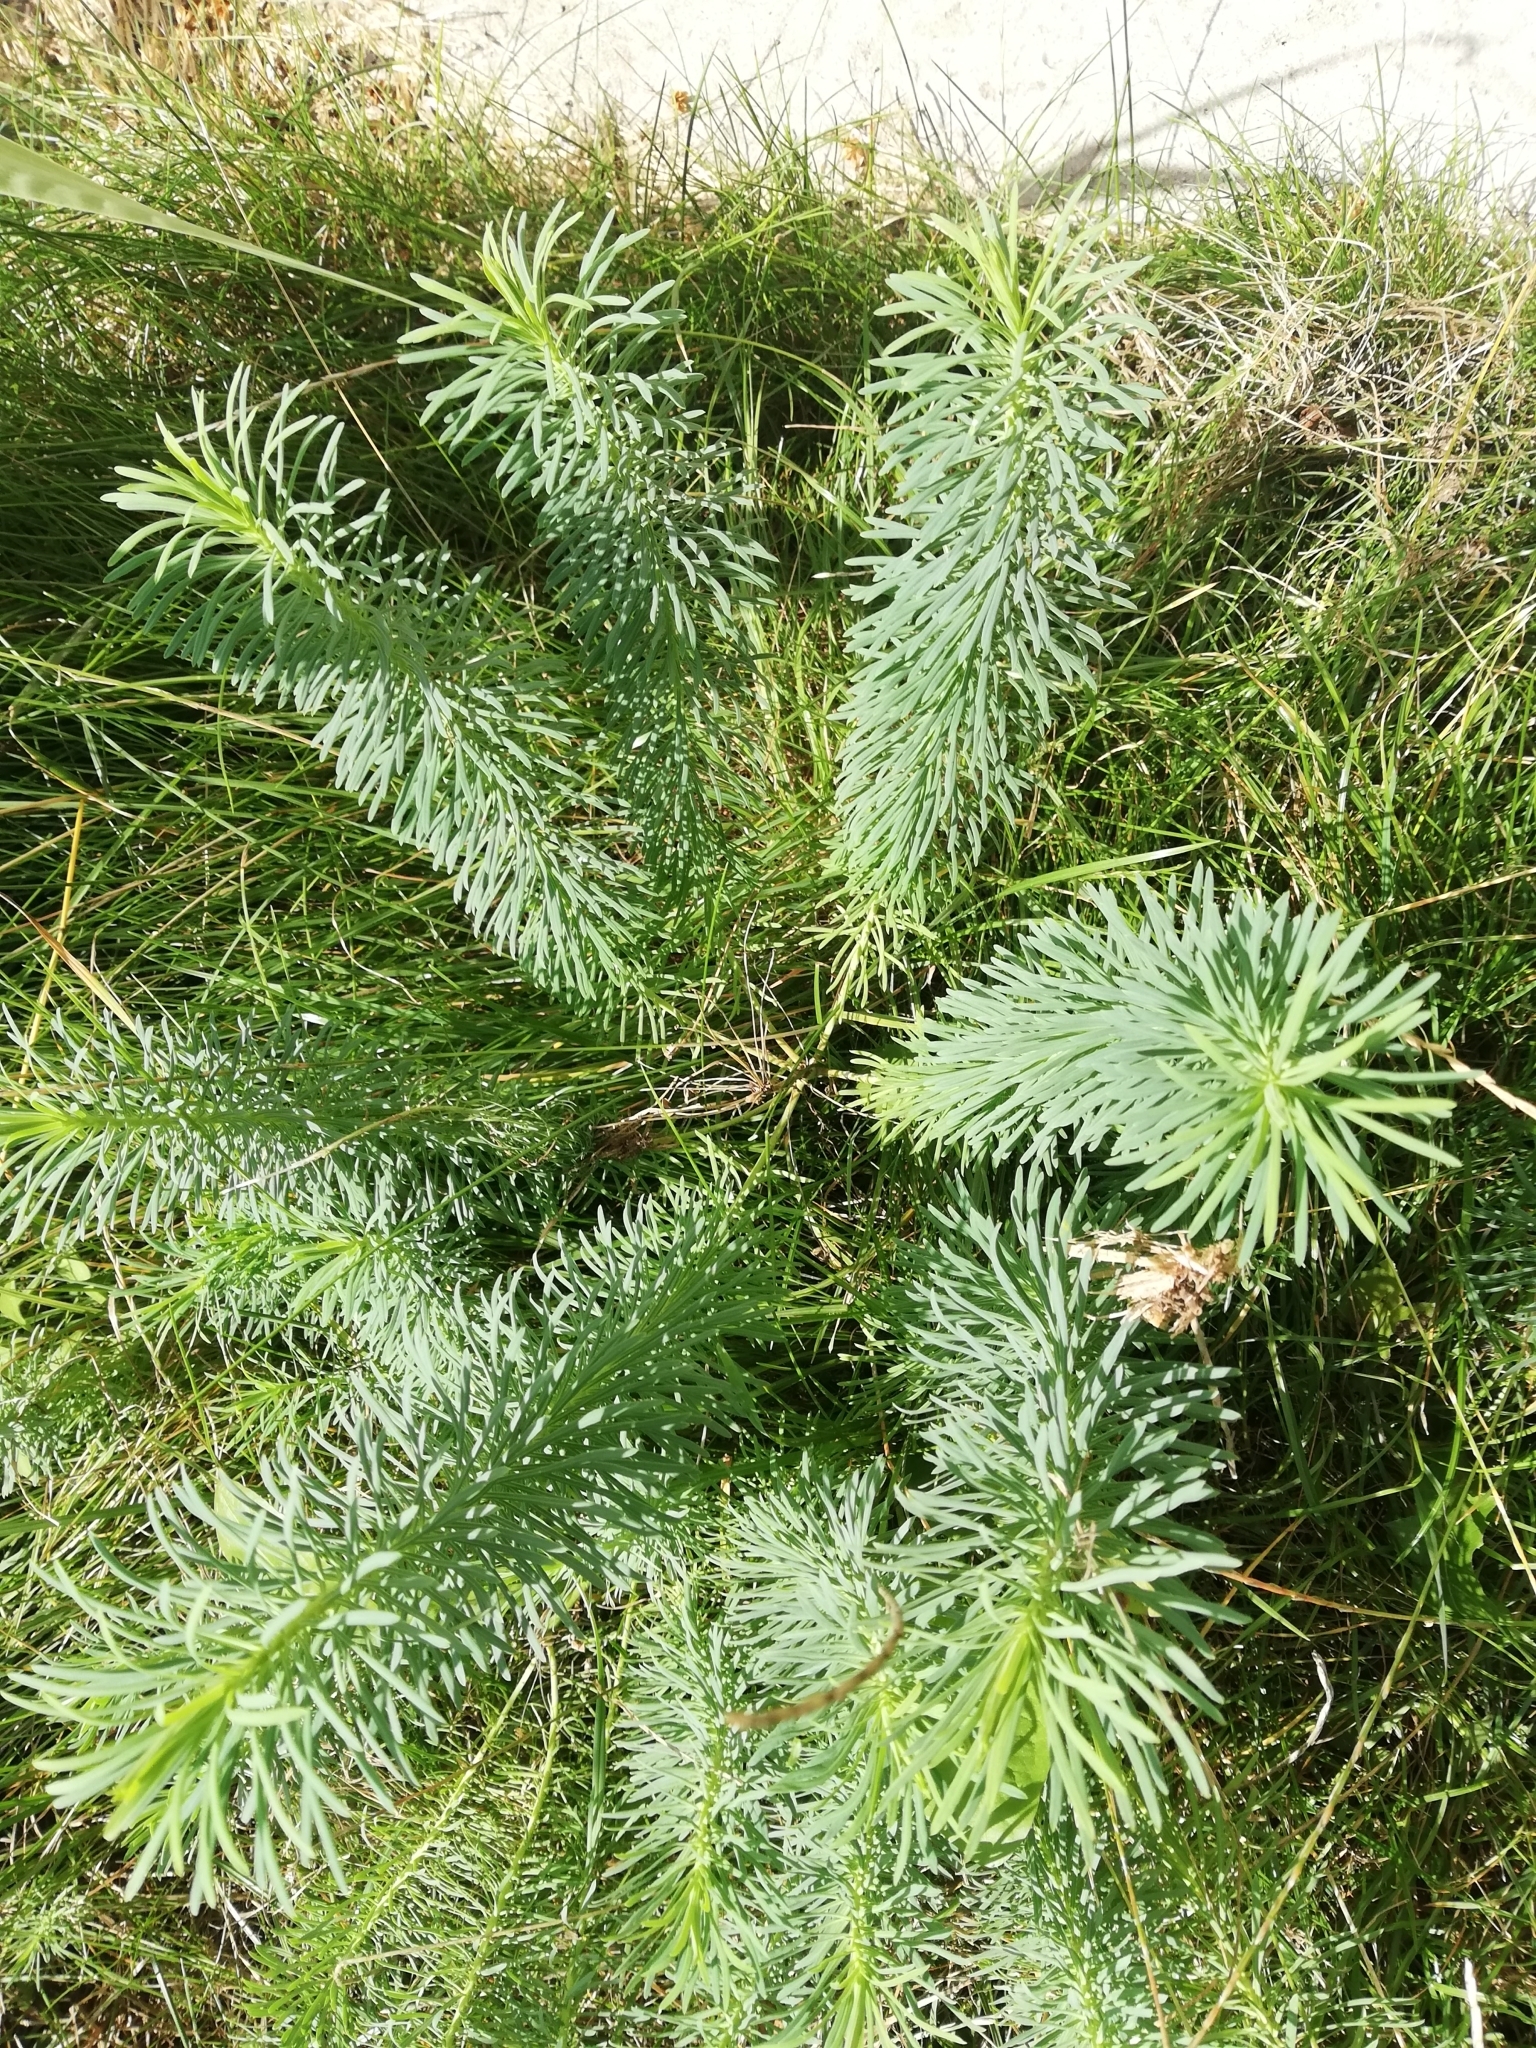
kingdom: Plantae
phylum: Tracheophyta
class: Magnoliopsida
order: Malpighiales
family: Euphorbiaceae
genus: Euphorbia
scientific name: Euphorbia cyparissias
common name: Cypress spurge
